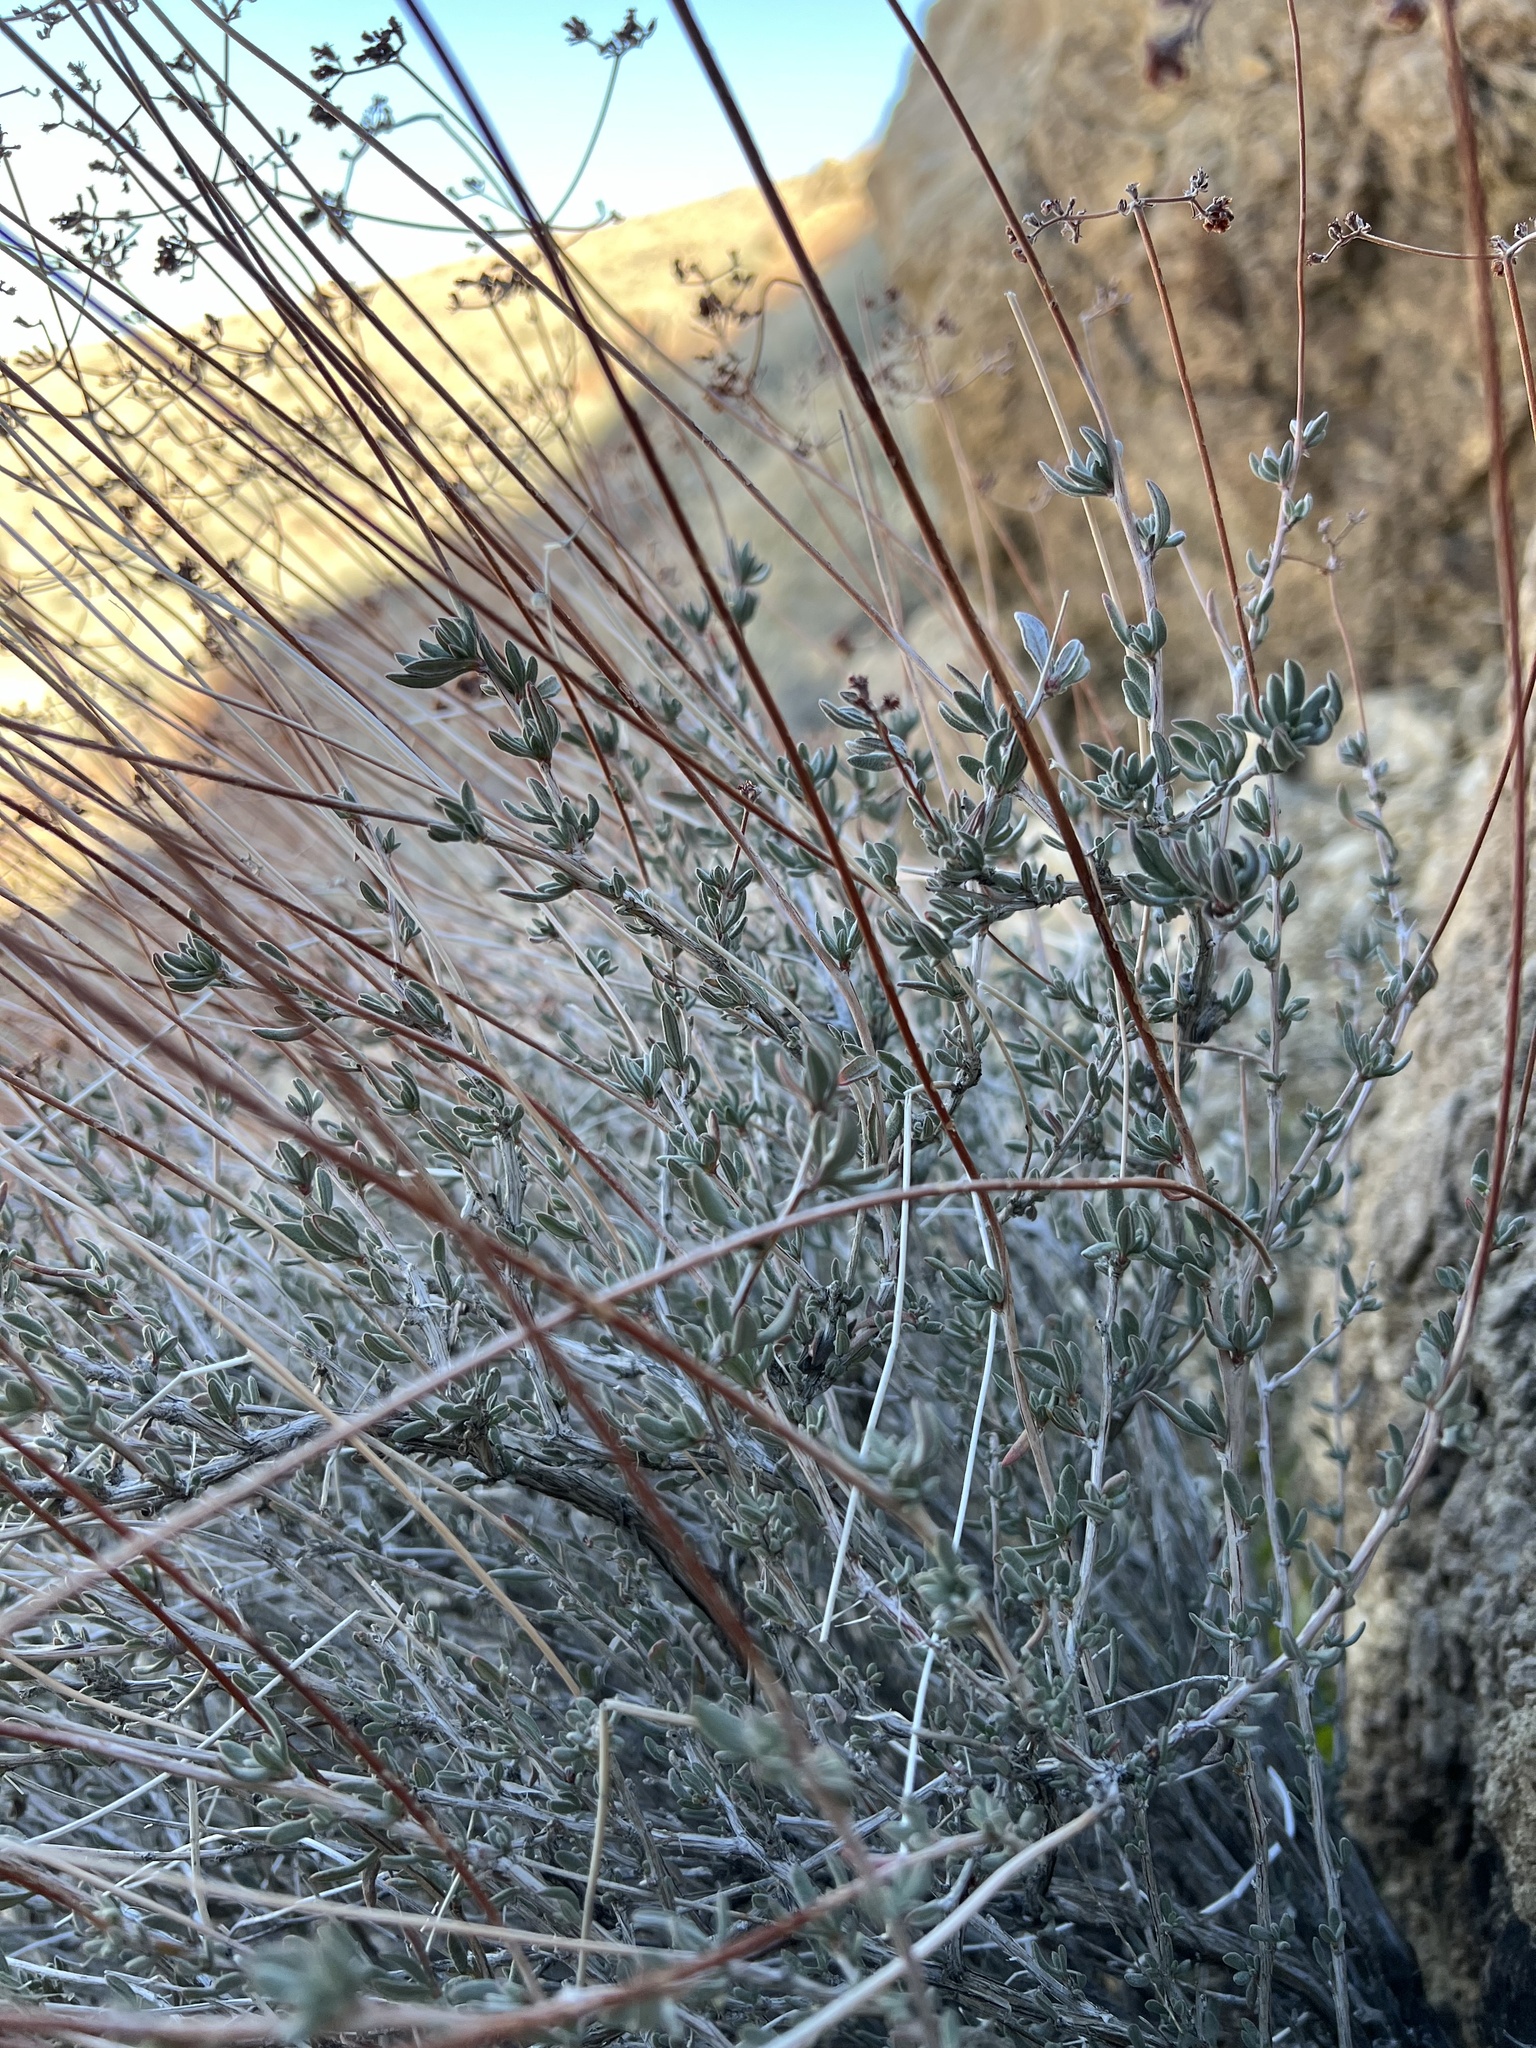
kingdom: Plantae
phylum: Tracheophyta
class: Magnoliopsida
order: Caryophyllales
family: Polygonaceae
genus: Eriogonum
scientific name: Eriogonum fasciculatum
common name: California wild buckwheat
